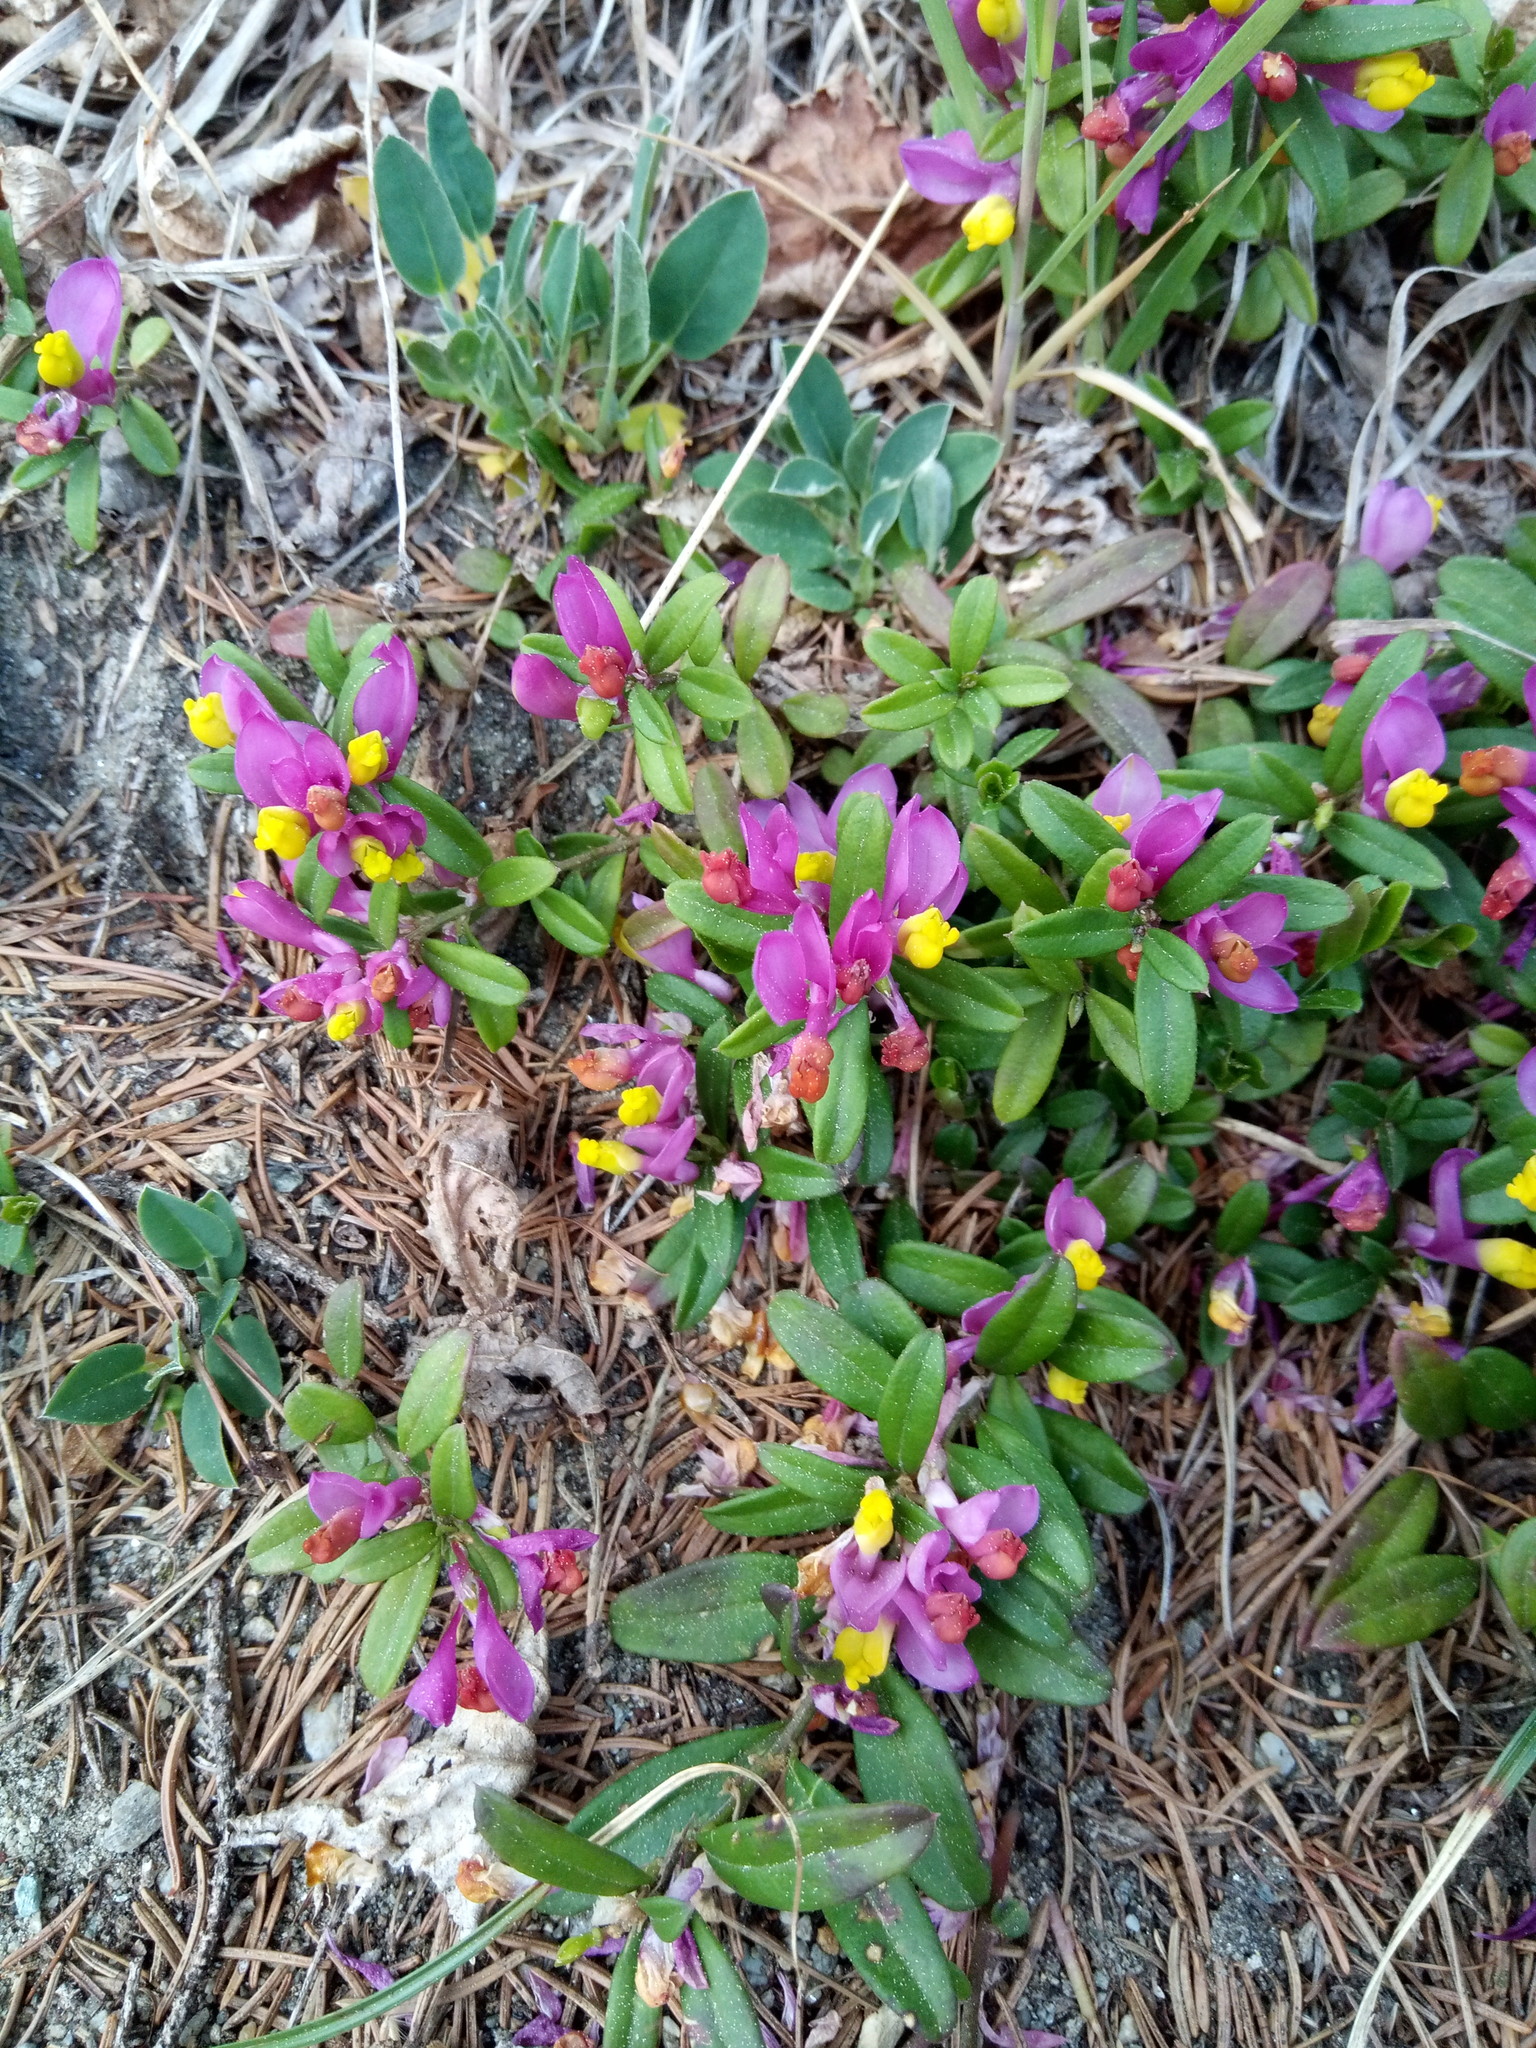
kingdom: Plantae
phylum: Tracheophyta
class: Magnoliopsida
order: Fabales
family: Polygalaceae
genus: Polygaloides
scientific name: Polygaloides chamaebuxus
